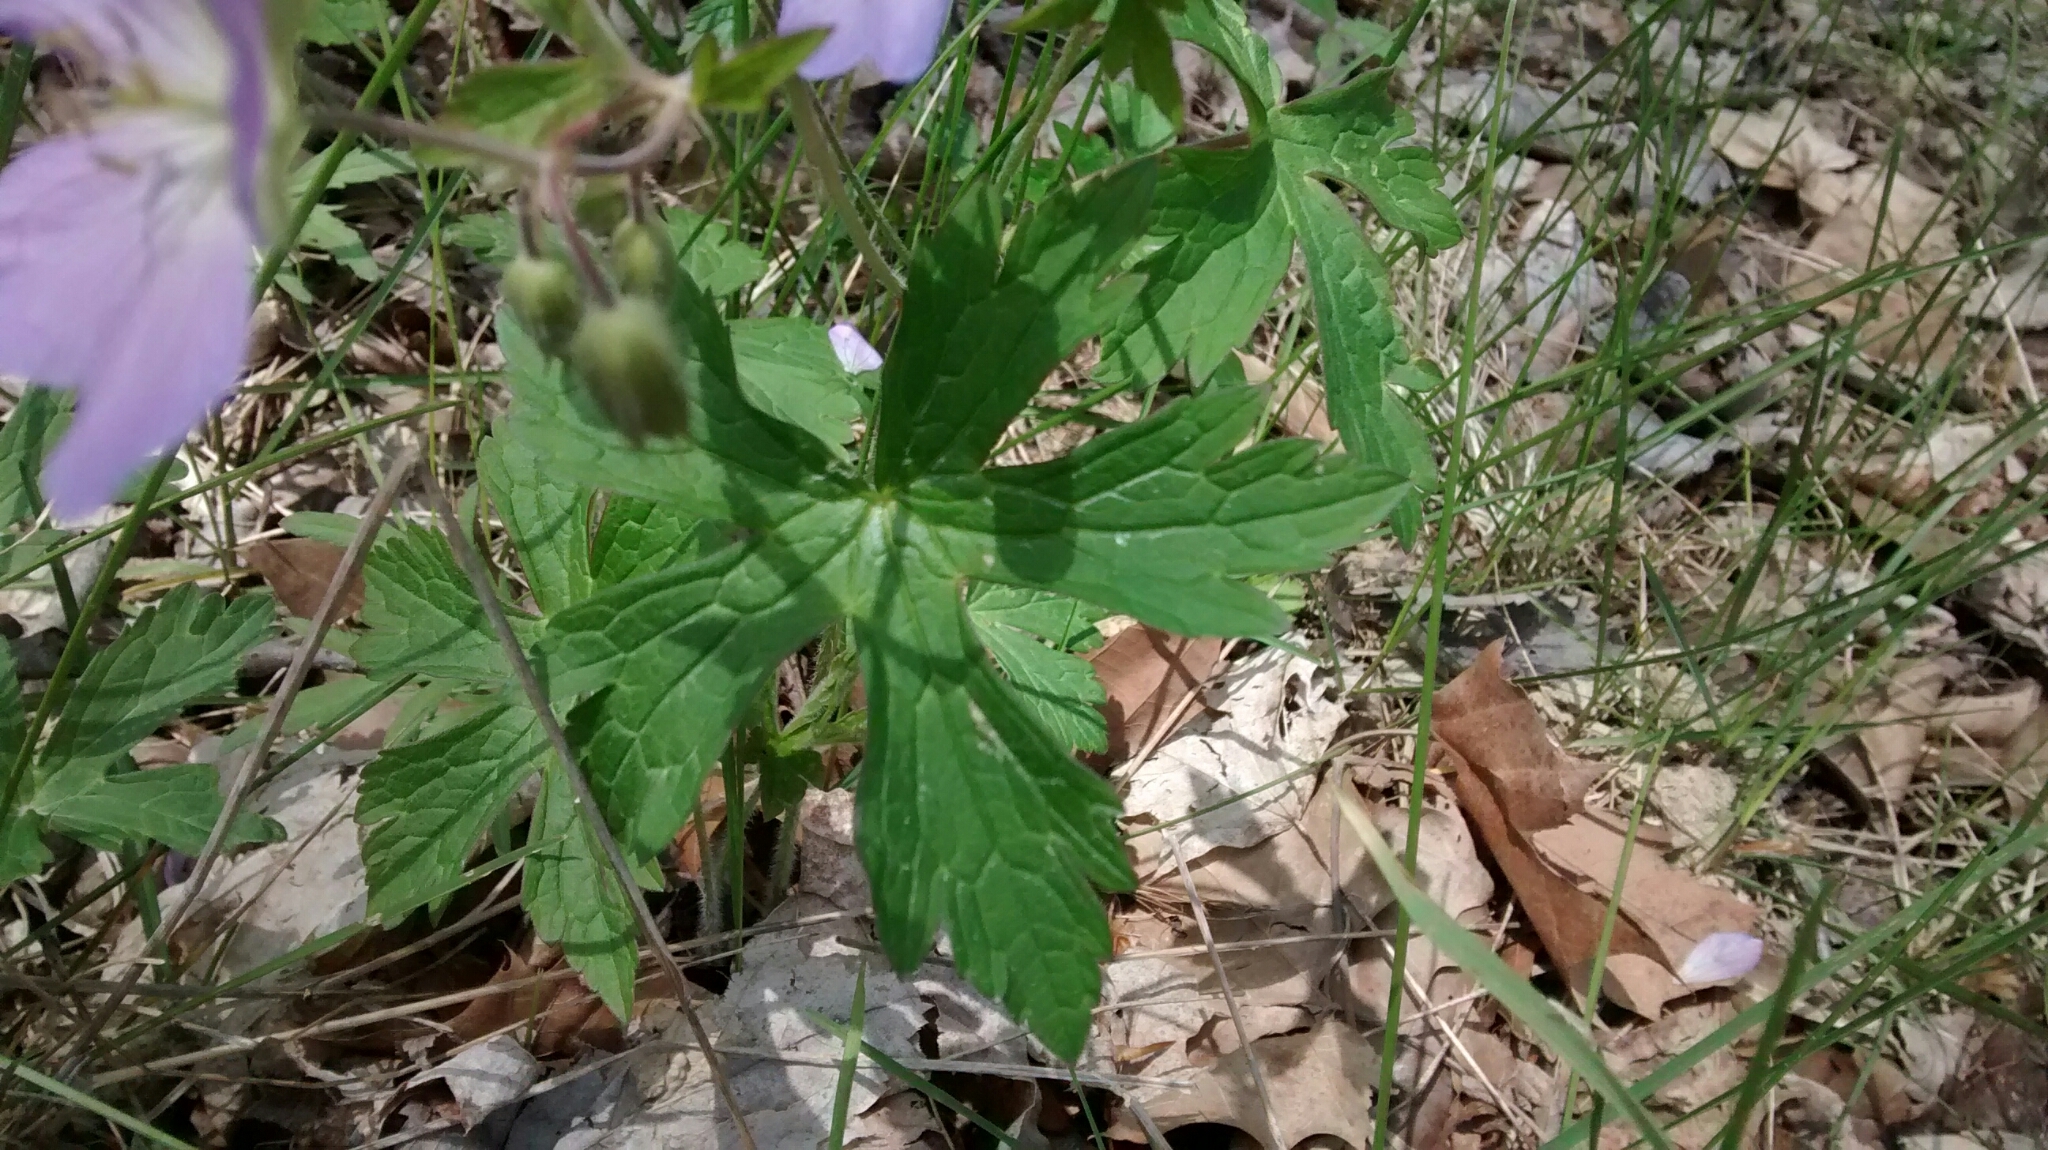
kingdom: Plantae
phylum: Tracheophyta
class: Magnoliopsida
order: Geraniales
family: Geraniaceae
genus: Geranium
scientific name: Geranium maculatum
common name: Spotted geranium
